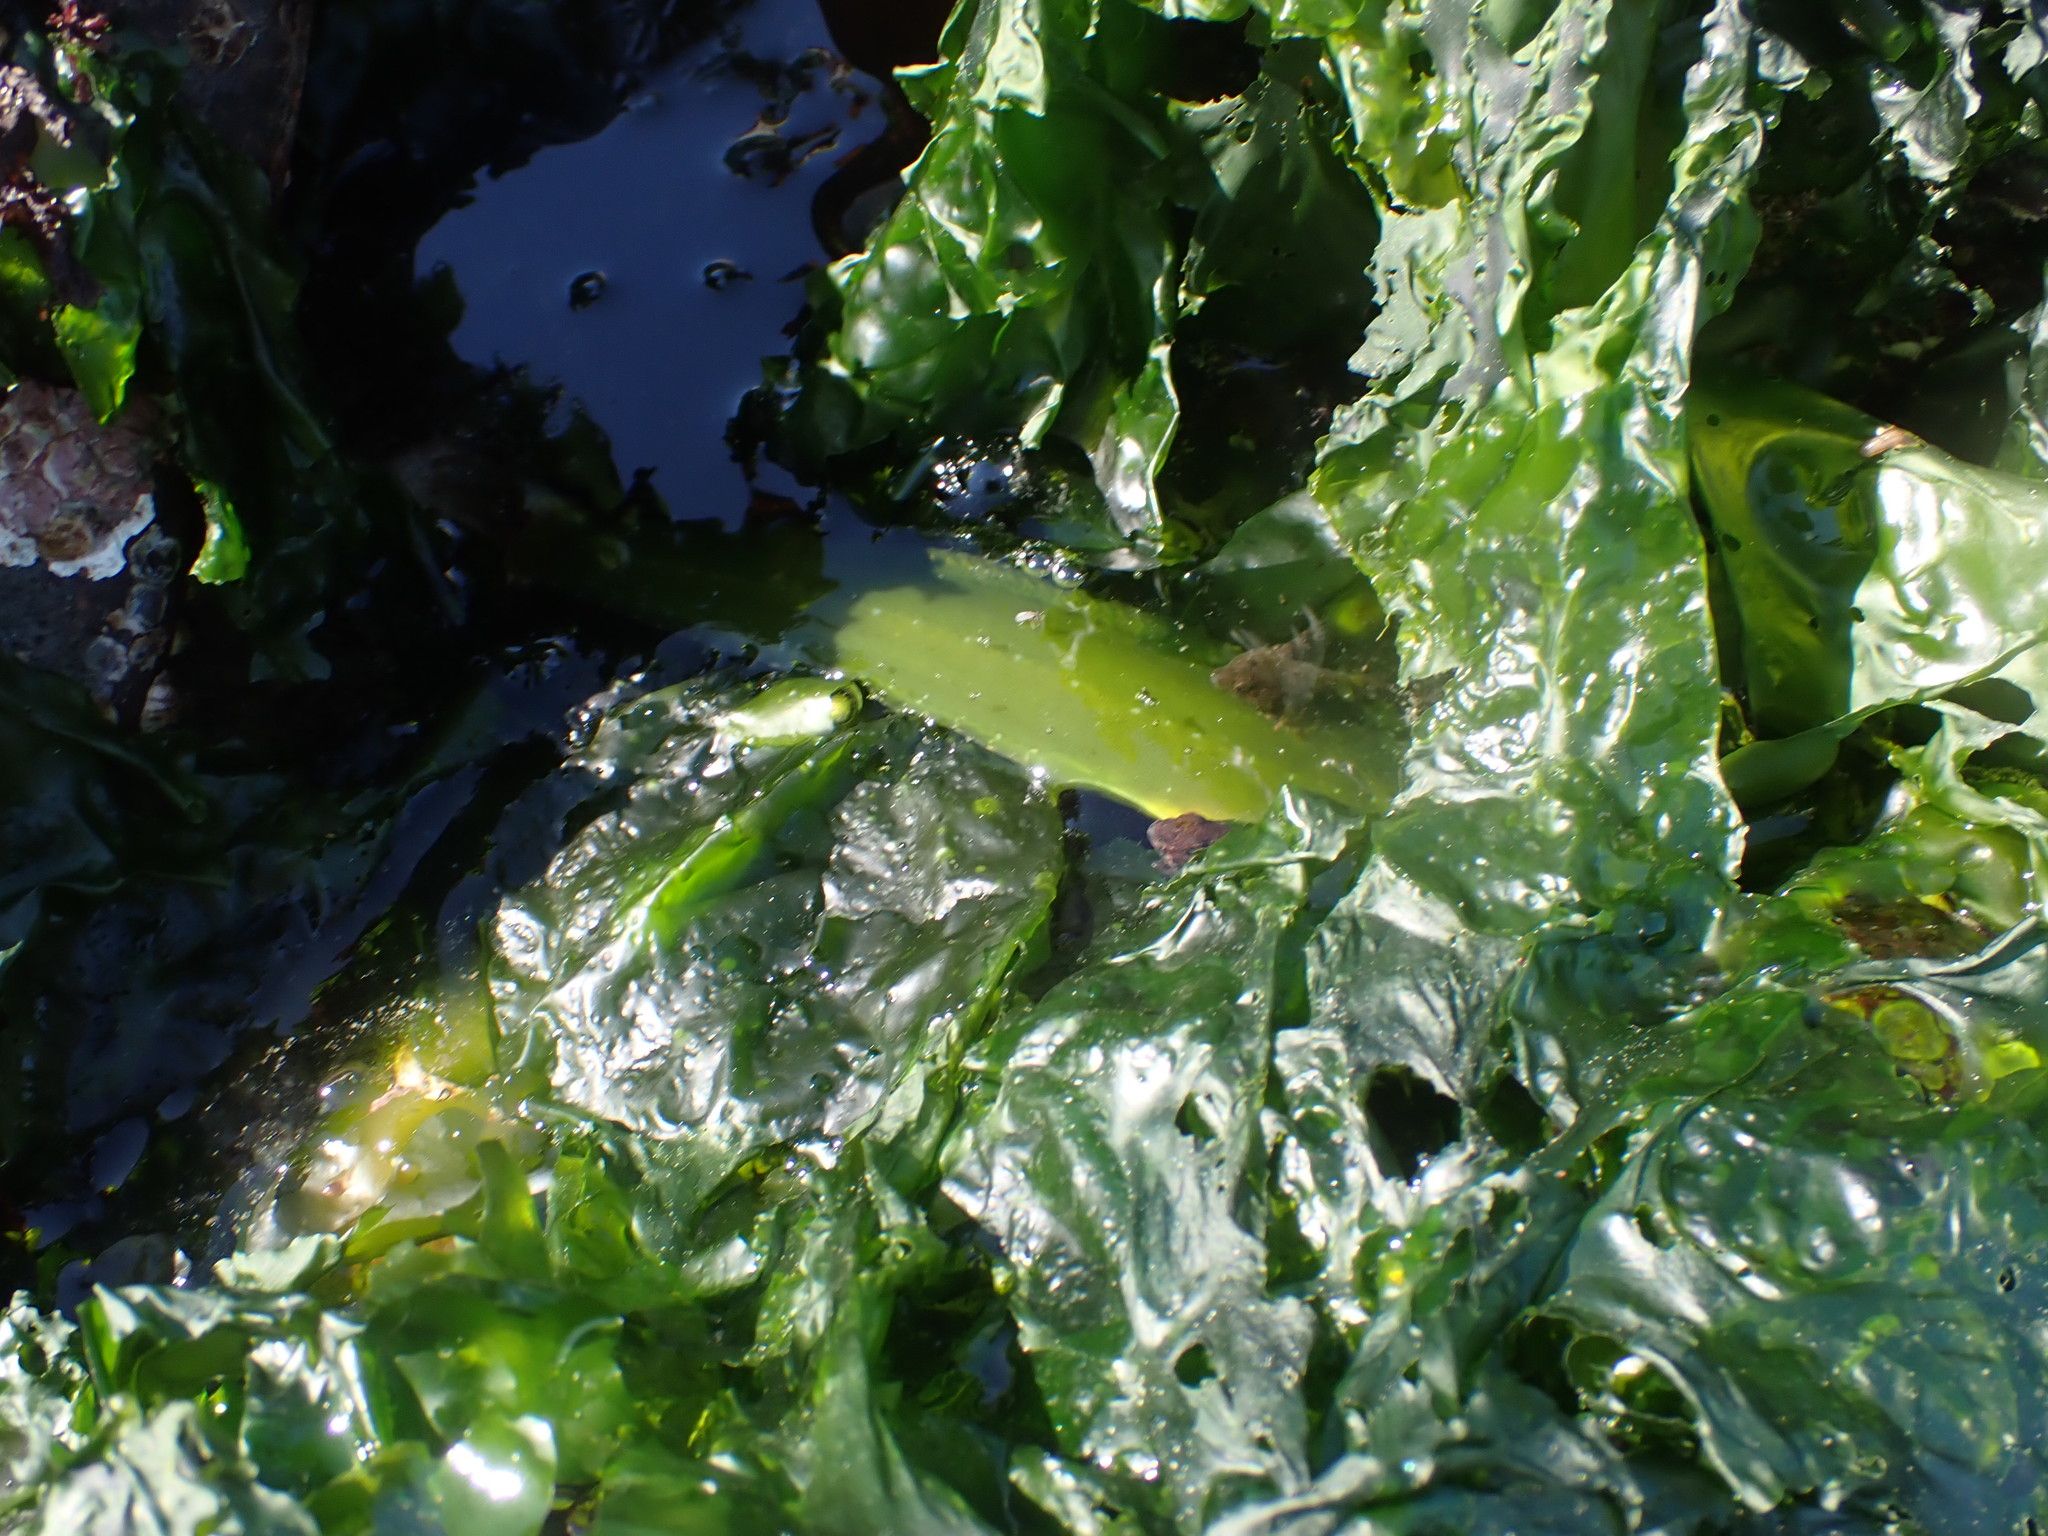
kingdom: Animalia
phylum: Chordata
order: Perciformes
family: Pholidae
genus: Apodichthys
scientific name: Apodichthys flavidus
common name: Penpoint gunnel
